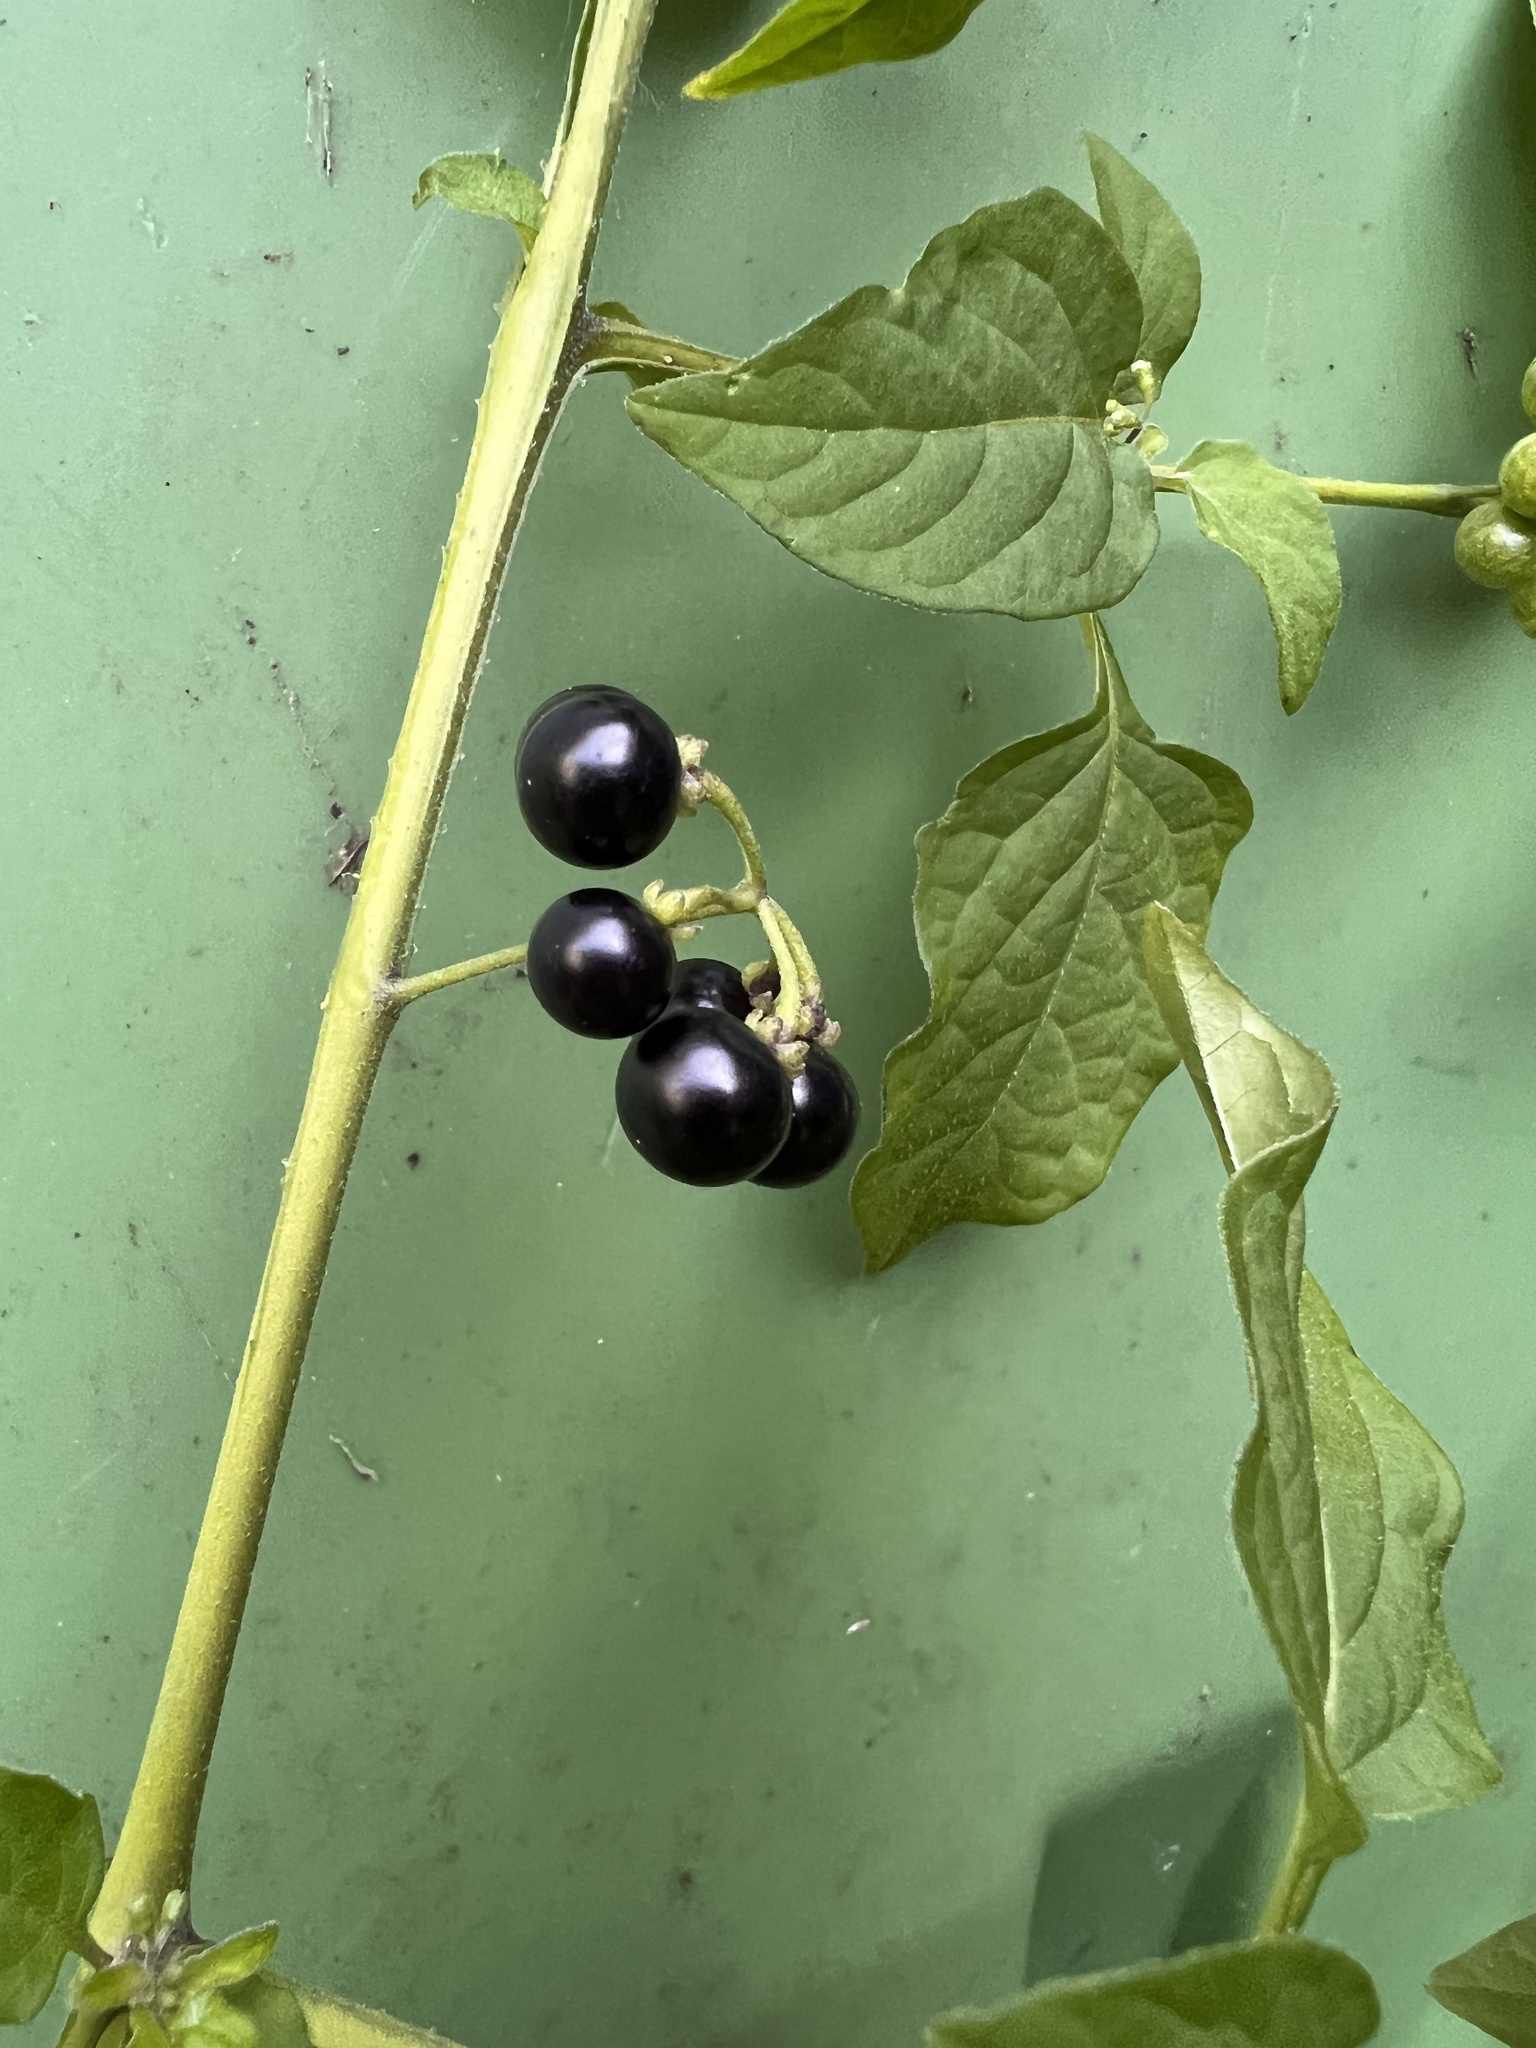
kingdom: Plantae
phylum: Tracheophyta
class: Magnoliopsida
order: Solanales
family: Solanaceae
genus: Solanum
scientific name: Solanum americanum
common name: American black nightshade
